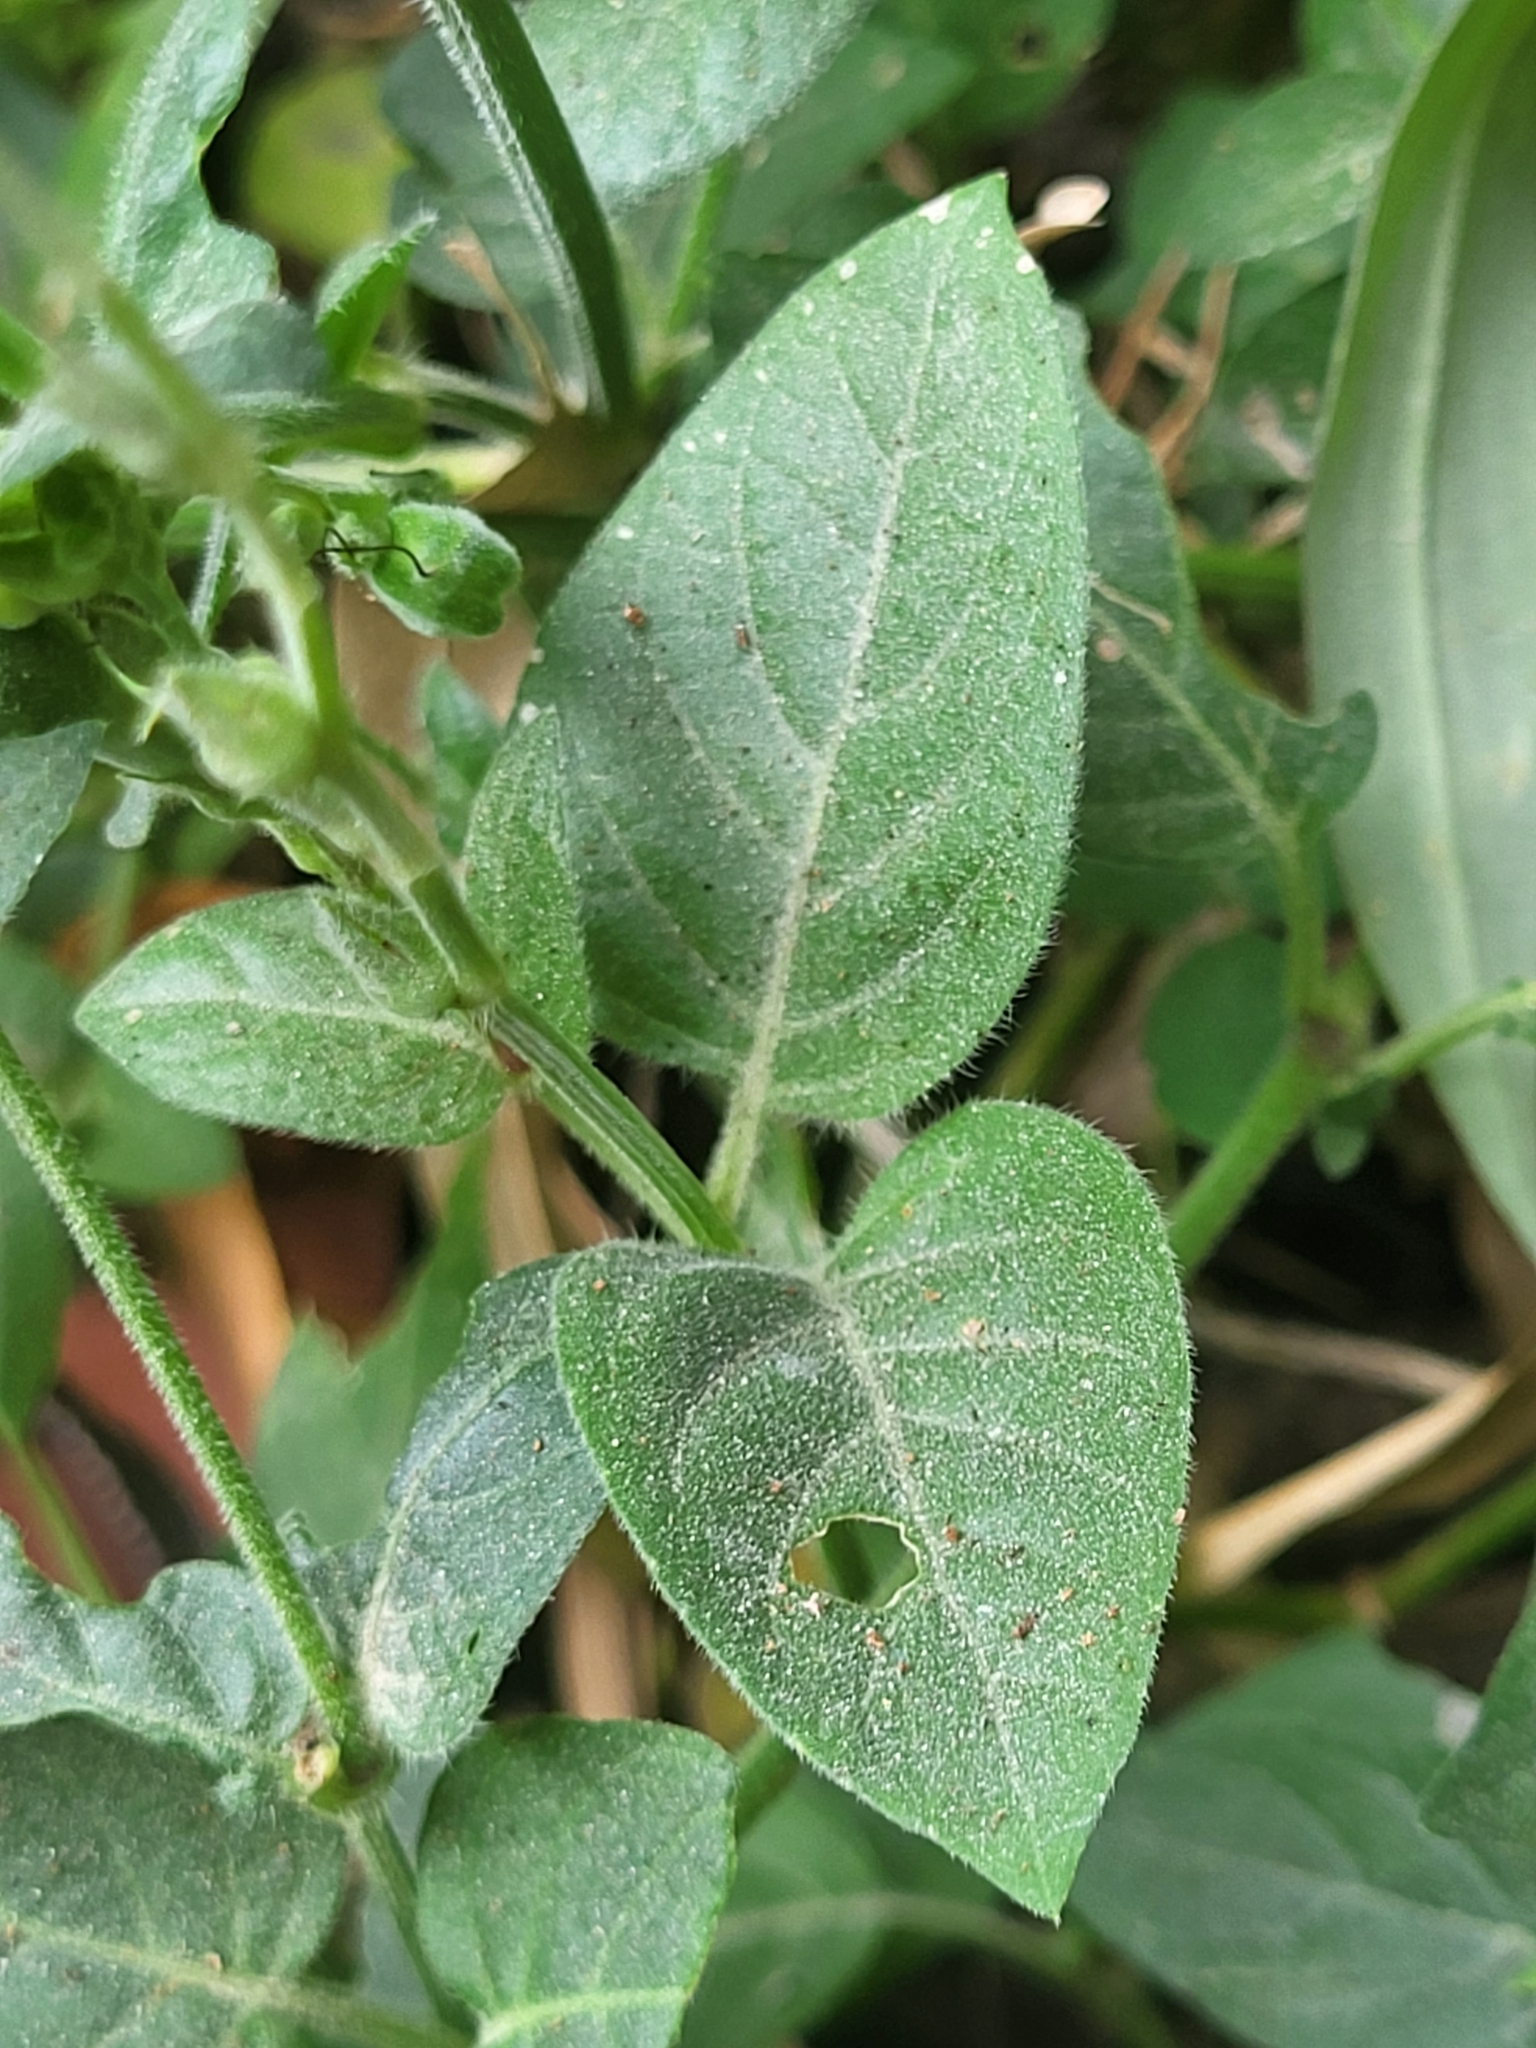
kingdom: Plantae
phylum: Tracheophyta
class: Magnoliopsida
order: Lamiales
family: Acanthaceae
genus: Asystasia
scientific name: Asystasia intrusa
